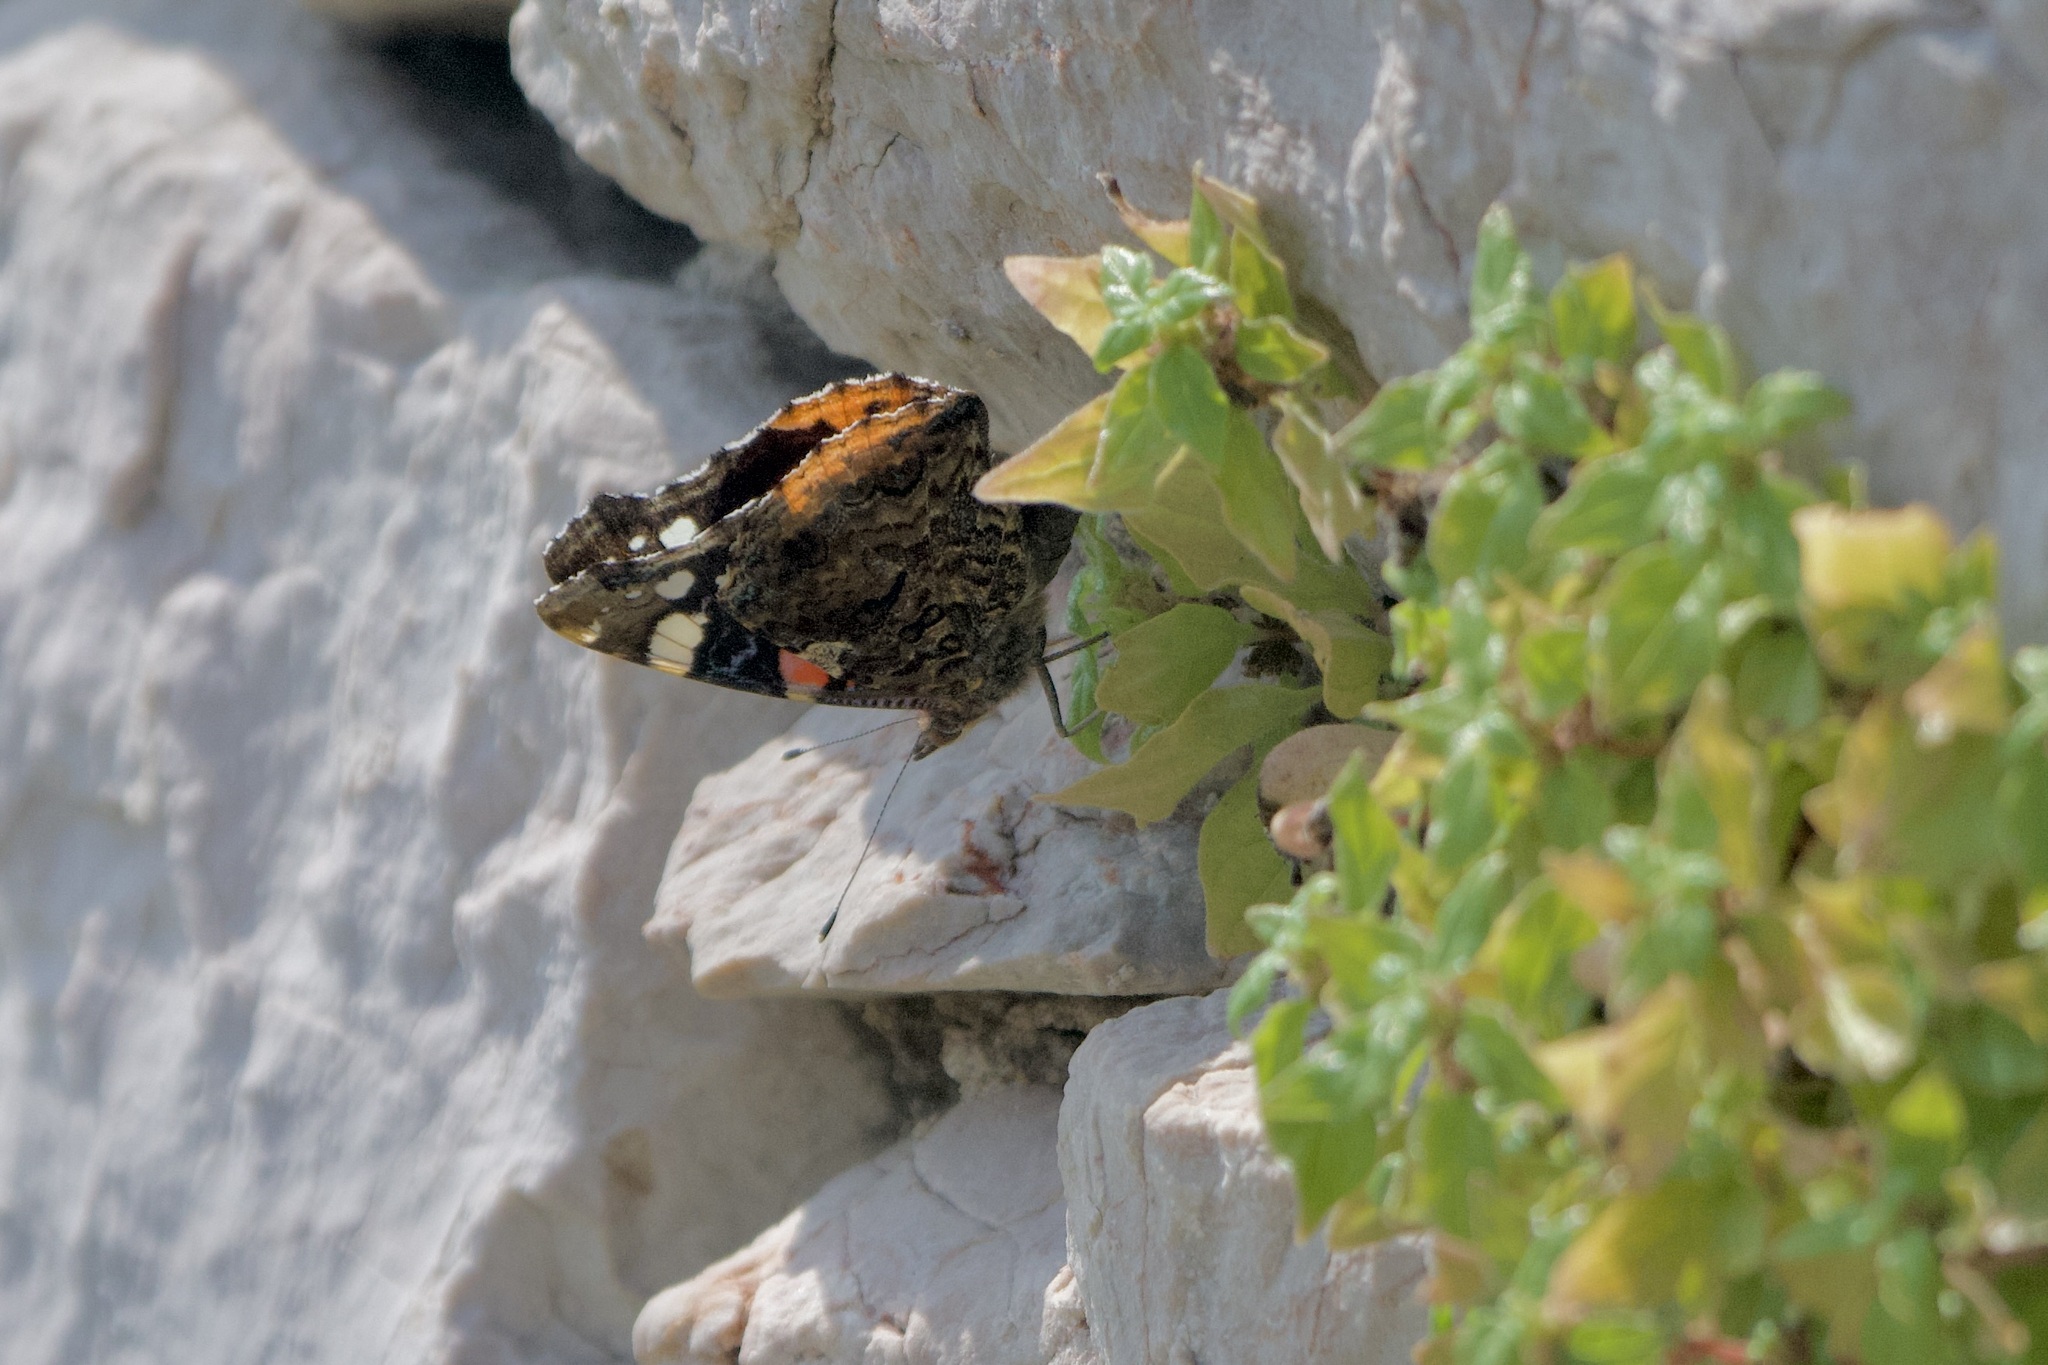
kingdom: Animalia
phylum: Arthropoda
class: Insecta
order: Lepidoptera
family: Nymphalidae
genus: Vanessa
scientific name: Vanessa atalanta
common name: Red admiral
